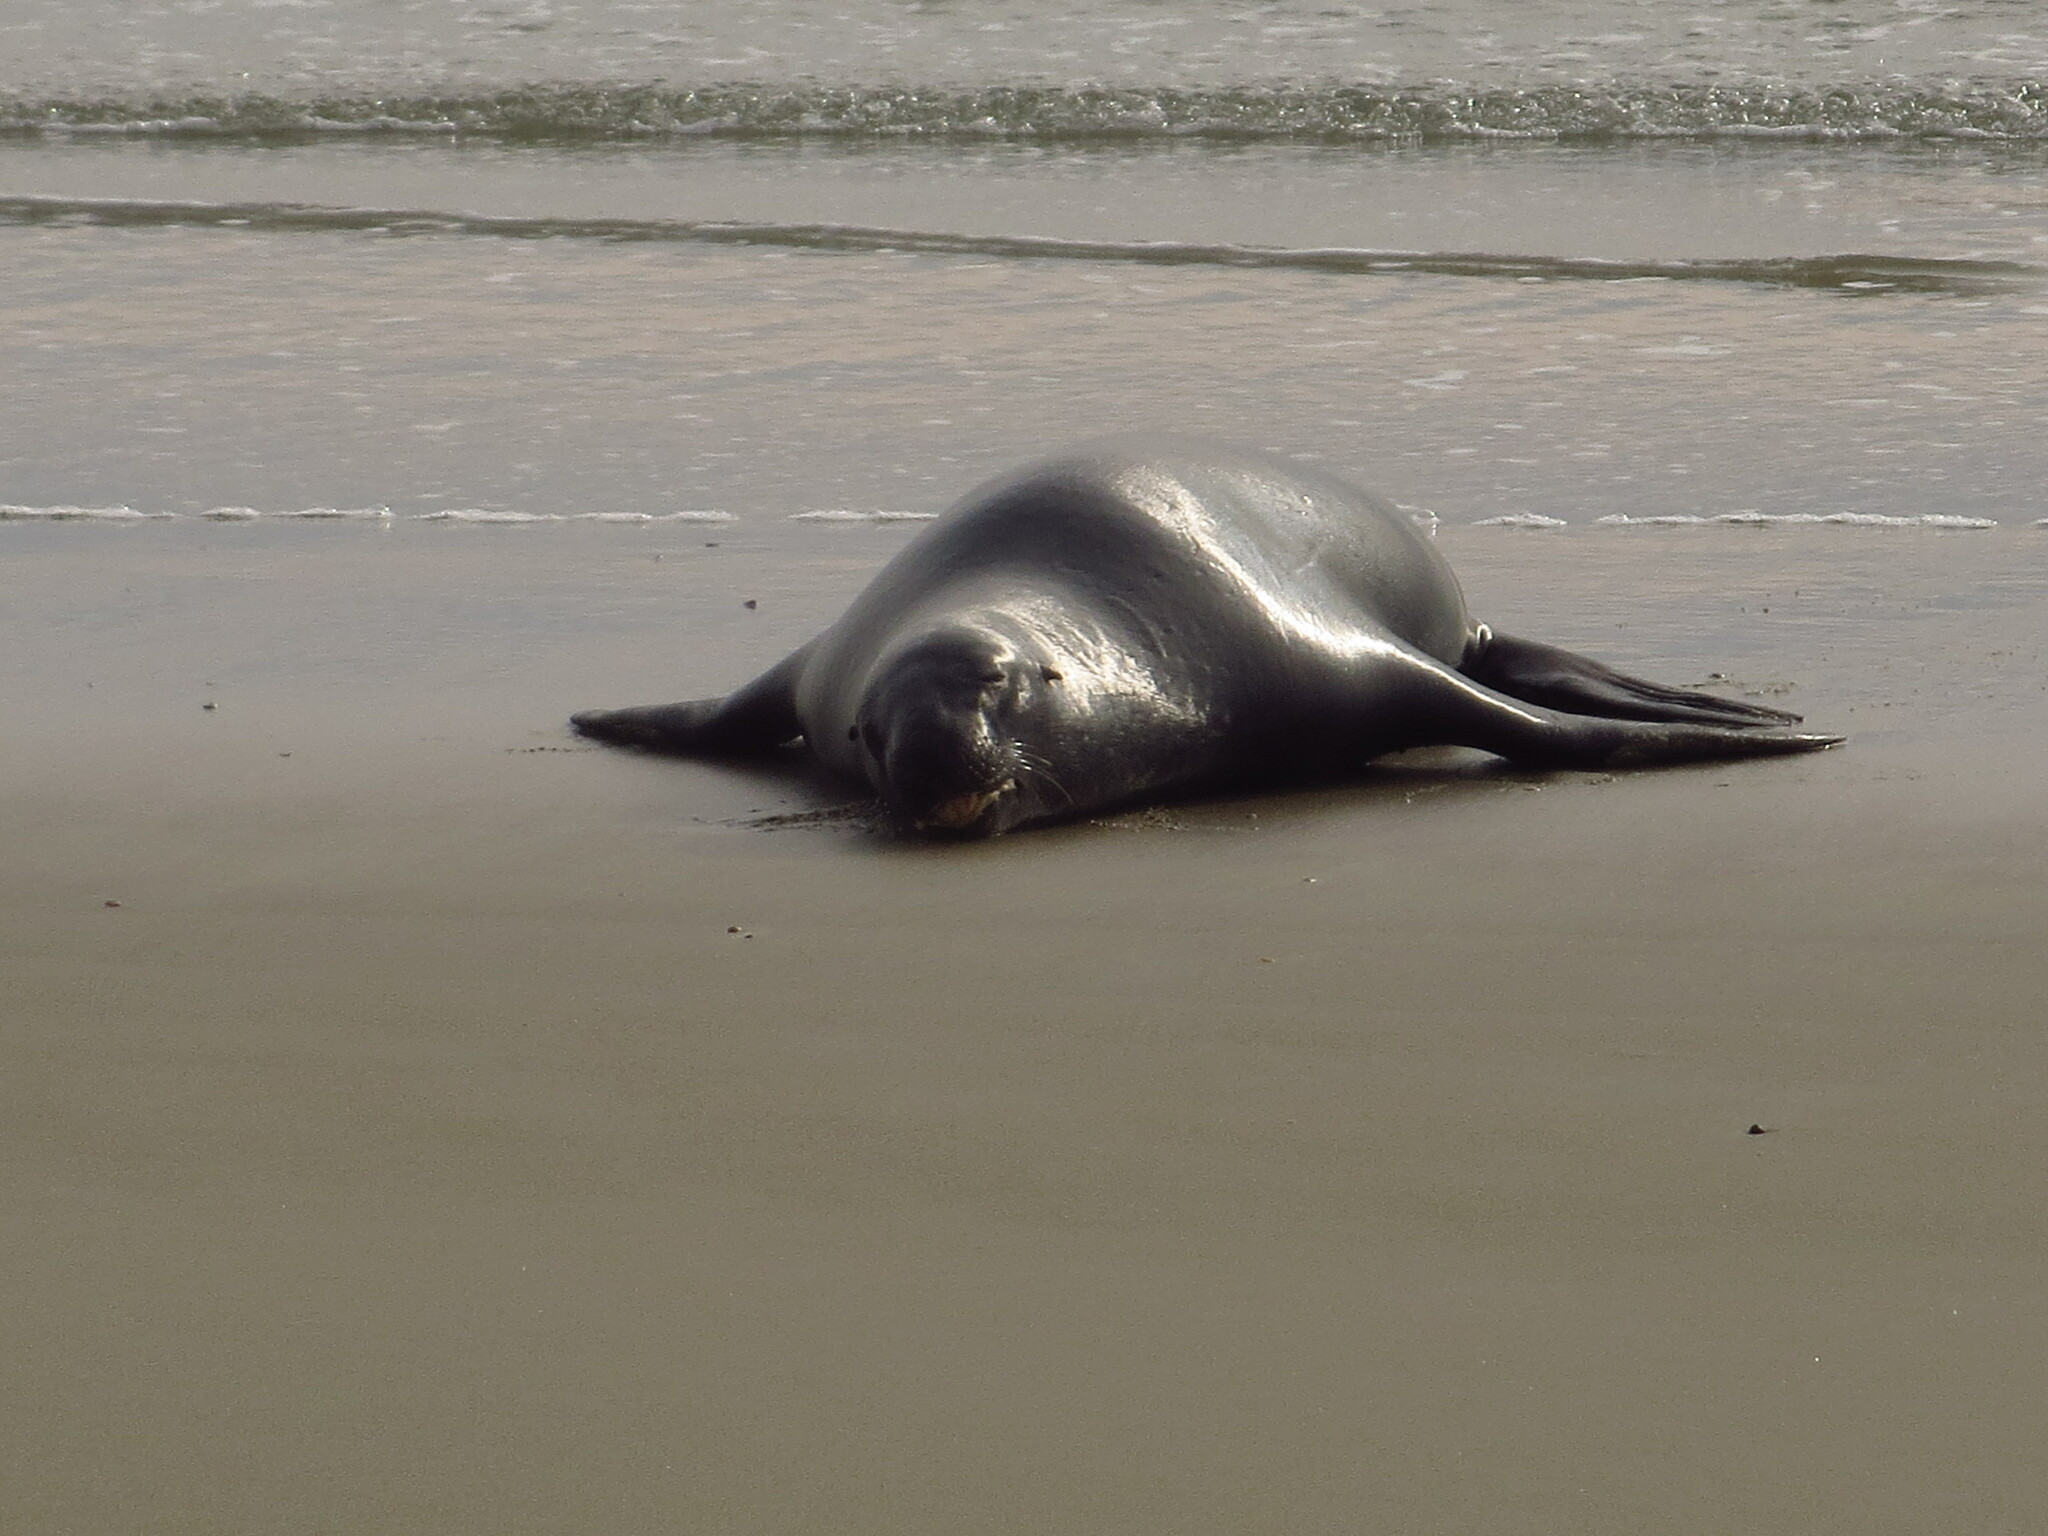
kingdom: Animalia
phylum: Chordata
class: Mammalia
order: Carnivora
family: Otariidae
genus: Phocarctos
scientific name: Phocarctos hookeri
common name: New zealand sea lion
